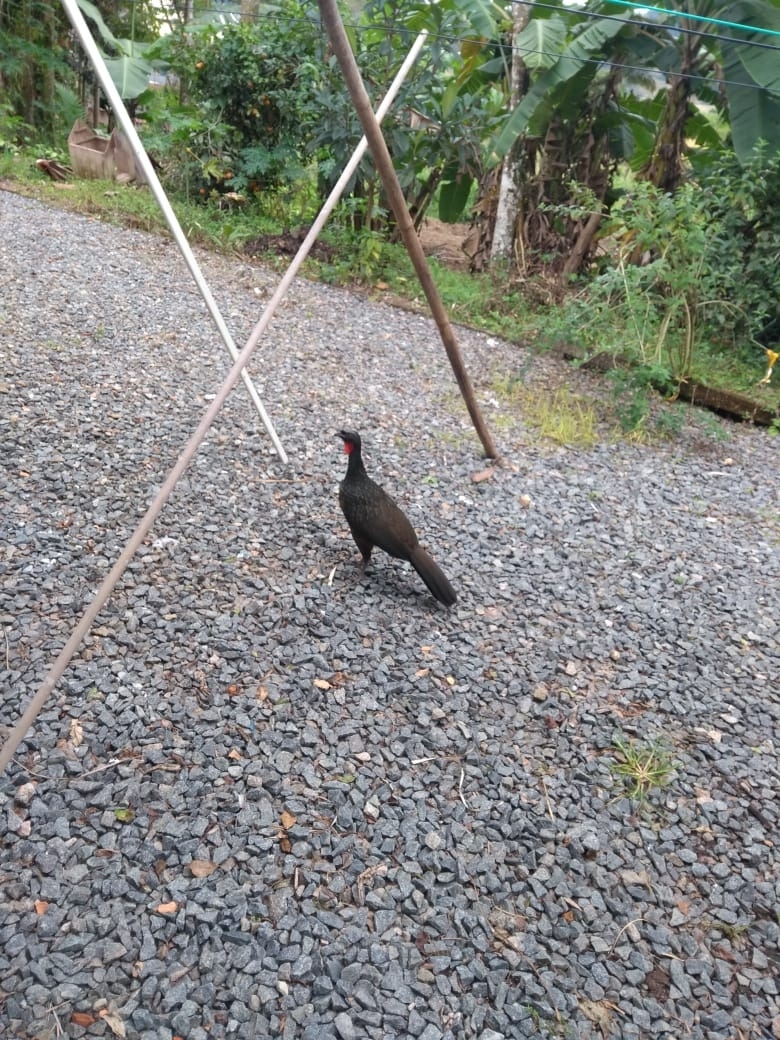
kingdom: Animalia
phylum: Chordata
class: Aves
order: Galliformes
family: Cracidae
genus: Penelope
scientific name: Penelope obscura
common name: Dusky-legged guan
